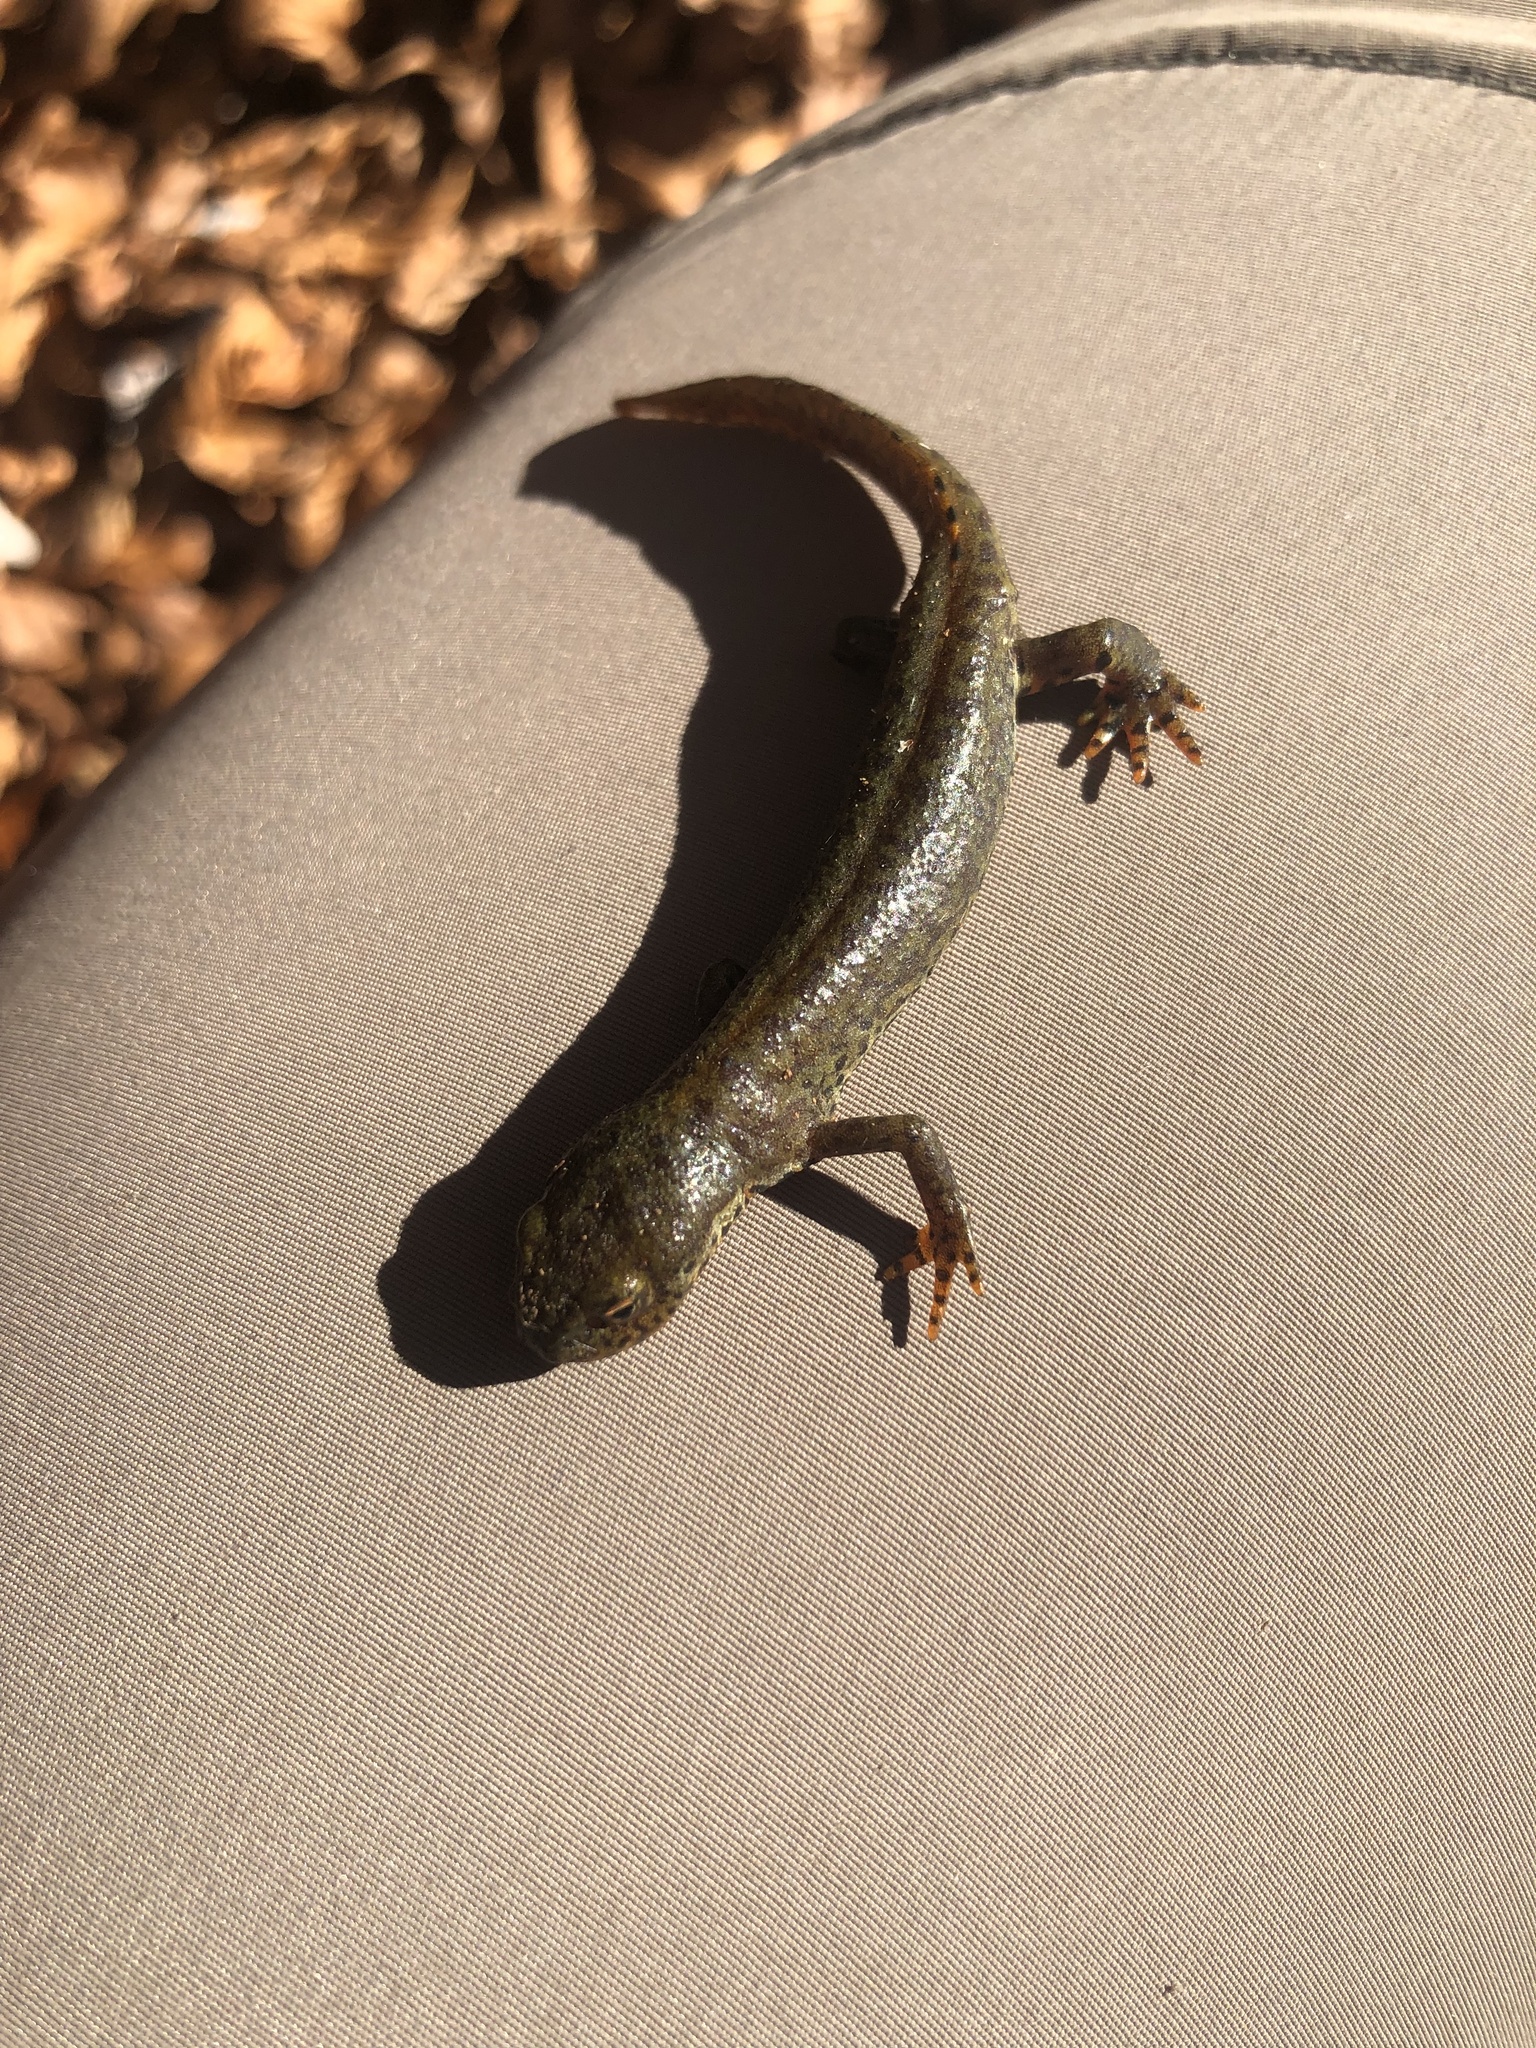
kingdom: Animalia
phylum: Chordata
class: Amphibia
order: Caudata
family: Salamandridae
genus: Ichthyosaura
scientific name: Ichthyosaura alpestris
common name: Alpine newt
